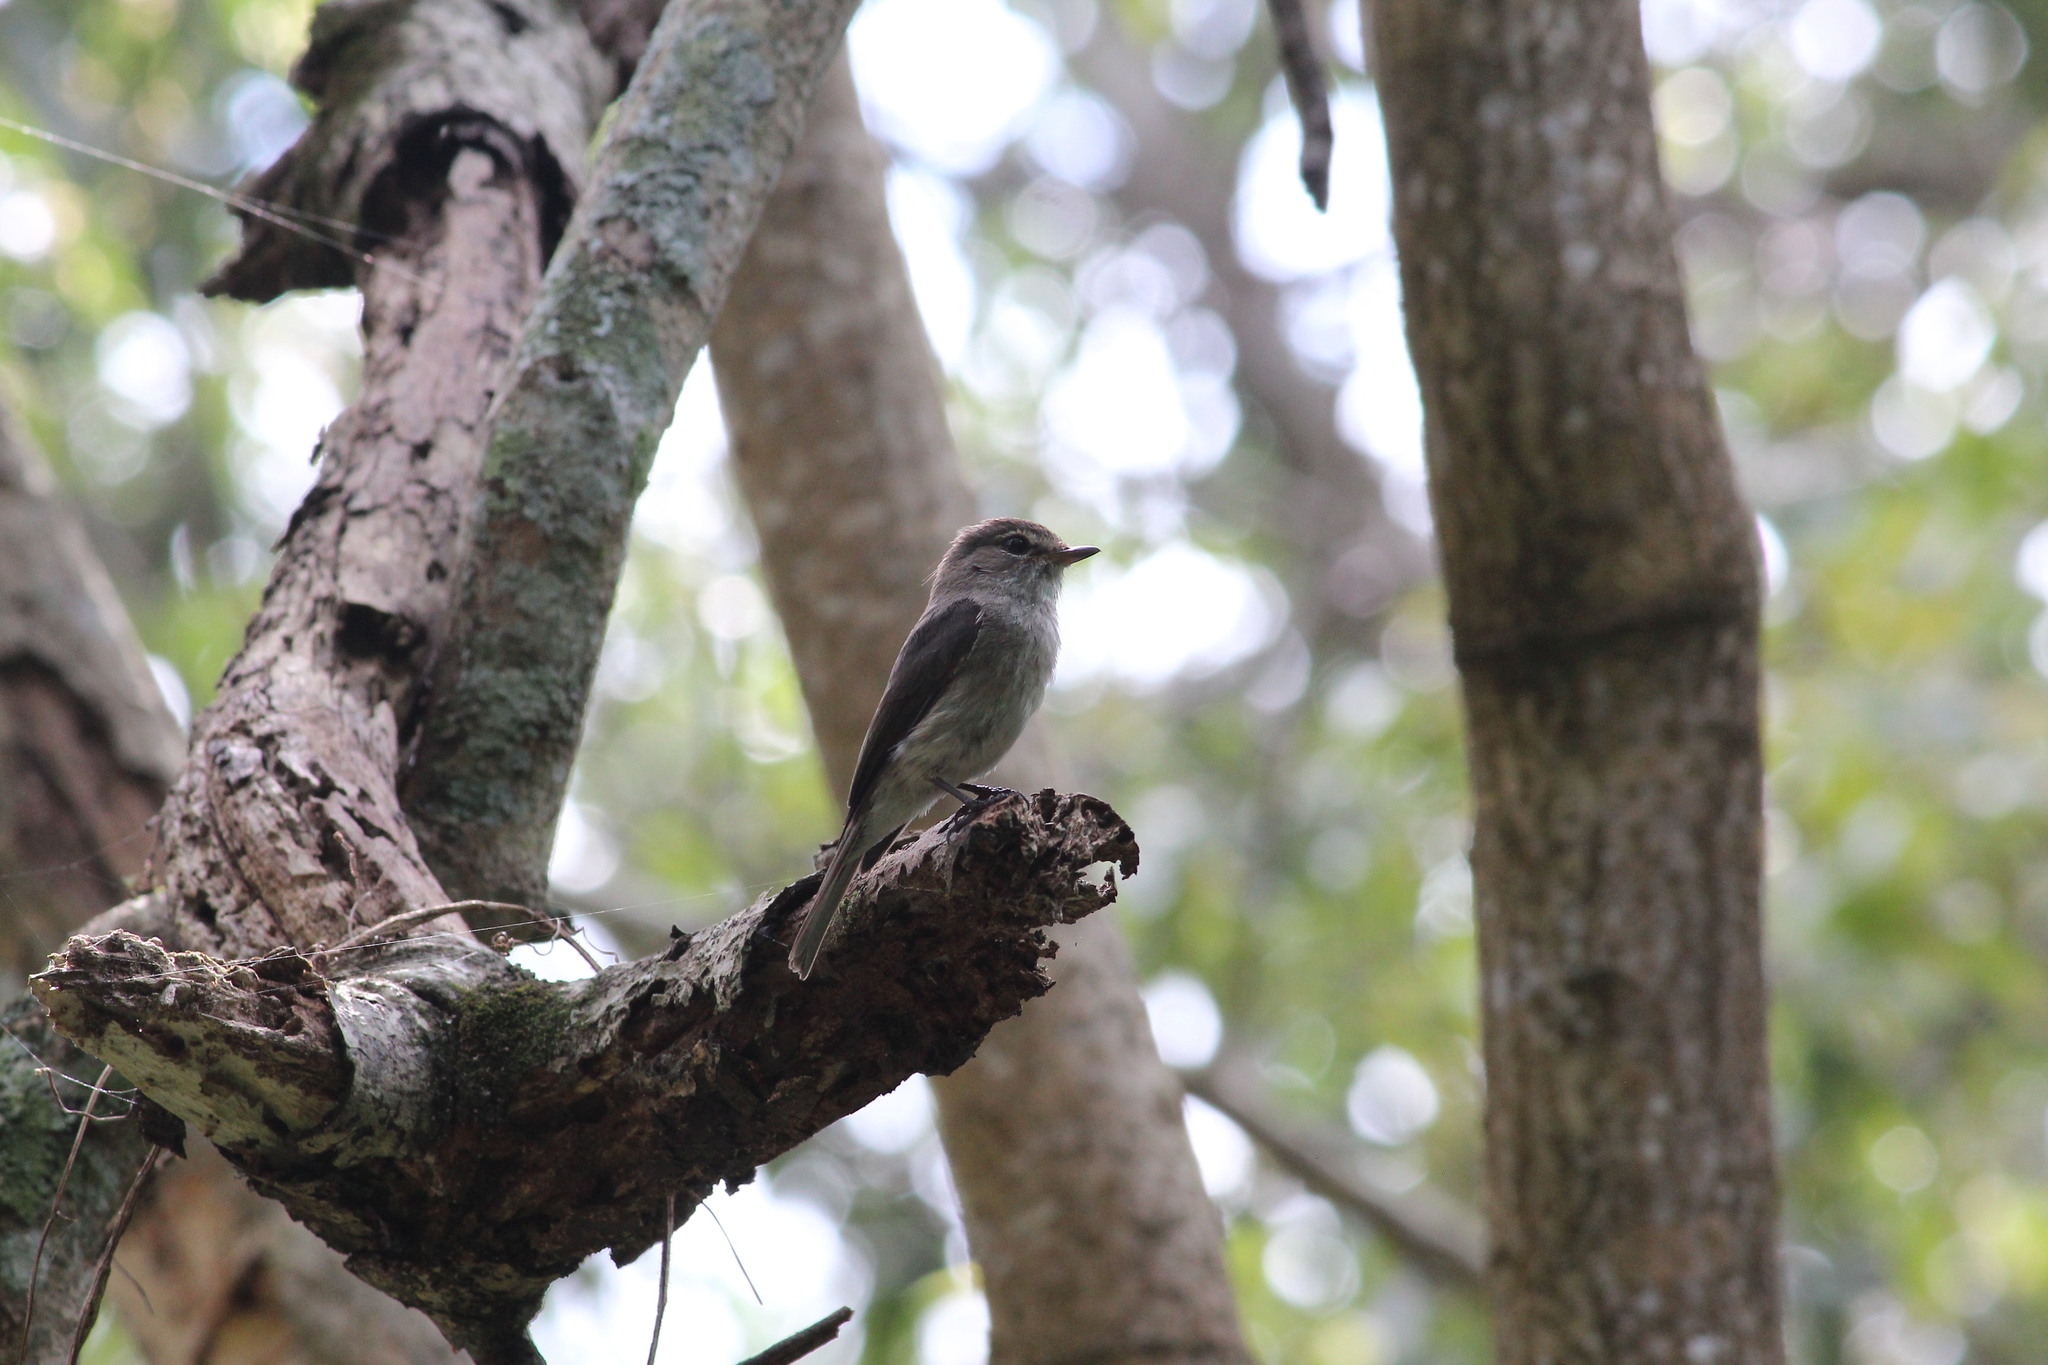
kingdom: Animalia
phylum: Chordata
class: Aves
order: Passeriformes
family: Muscicapidae
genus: Muscicapa
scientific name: Muscicapa adusta
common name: African dusky flycatcher
